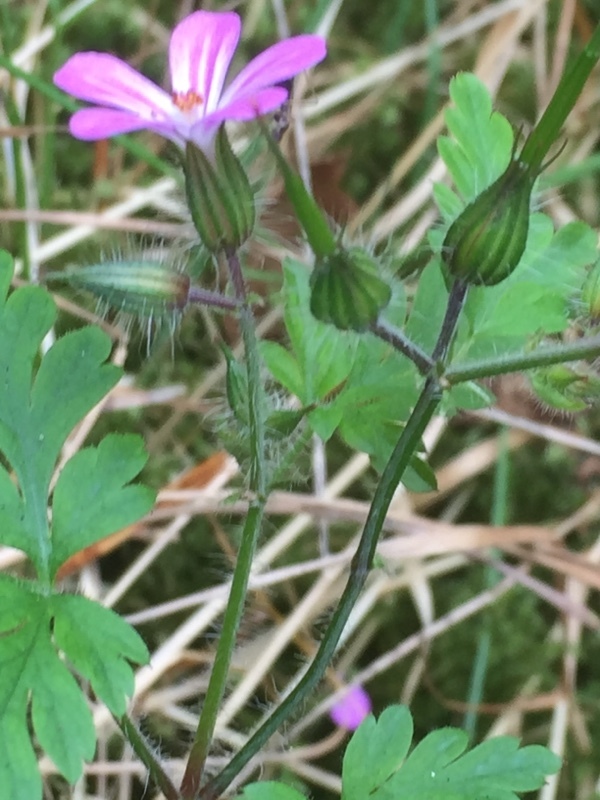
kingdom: Plantae
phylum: Tracheophyta
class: Magnoliopsida
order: Geraniales
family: Geraniaceae
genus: Geranium
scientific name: Geranium robertianum
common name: Herb-robert
